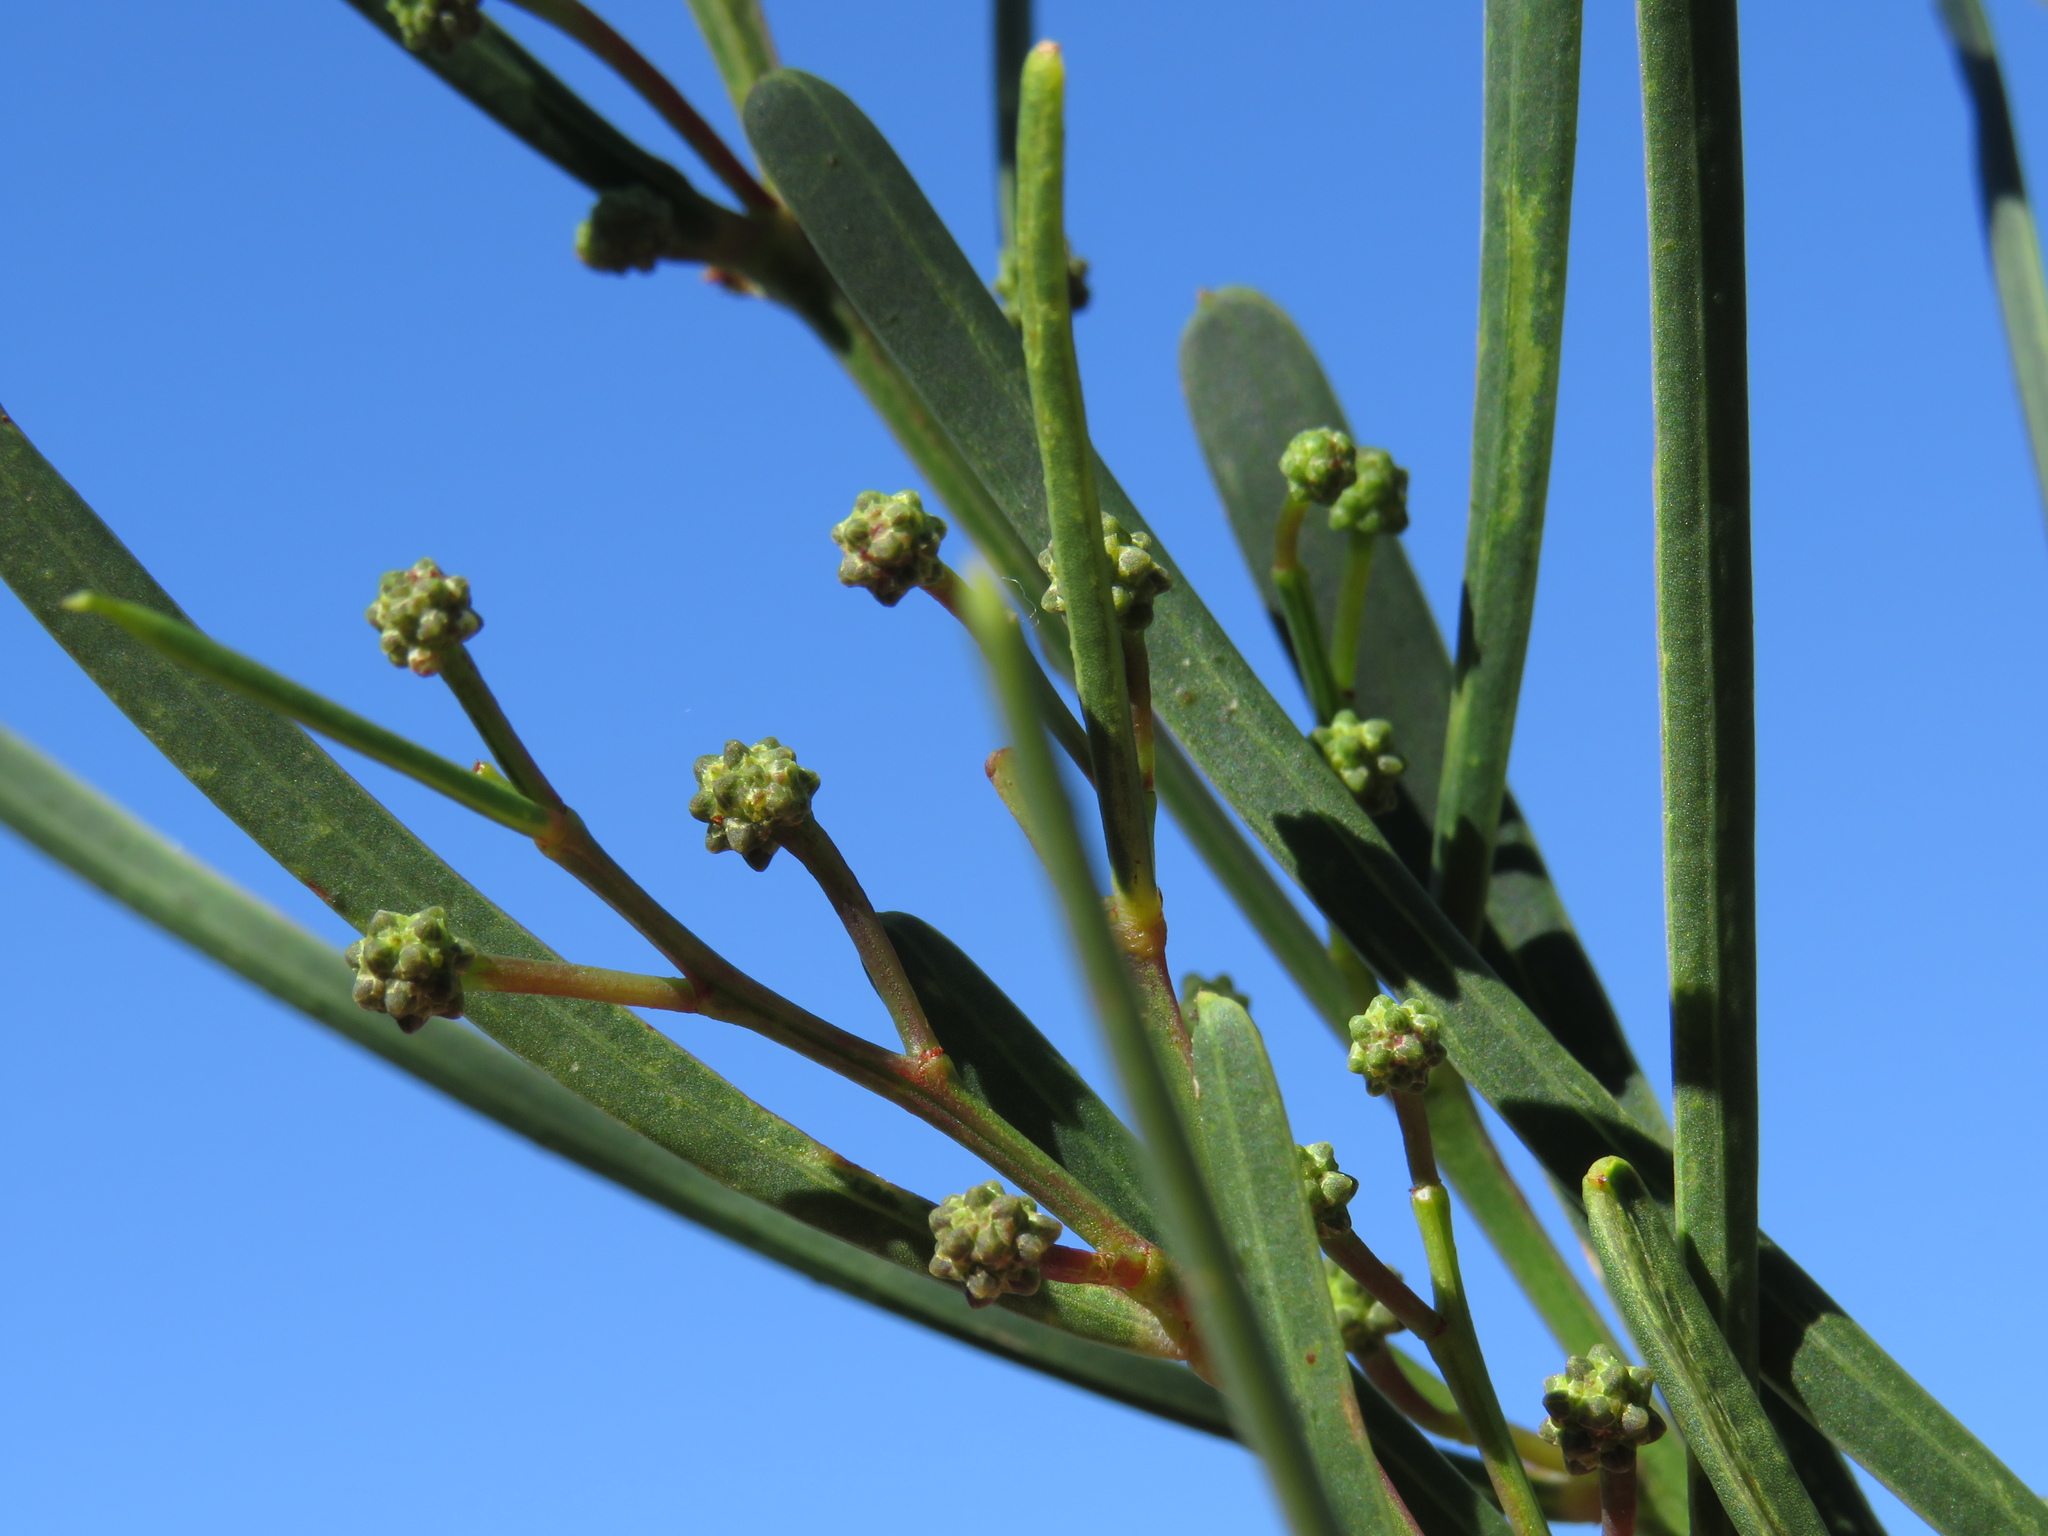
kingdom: Plantae
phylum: Tracheophyta
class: Magnoliopsida
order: Fabales
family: Fabaceae
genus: Acacia
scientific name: Acacia crassiuscula
